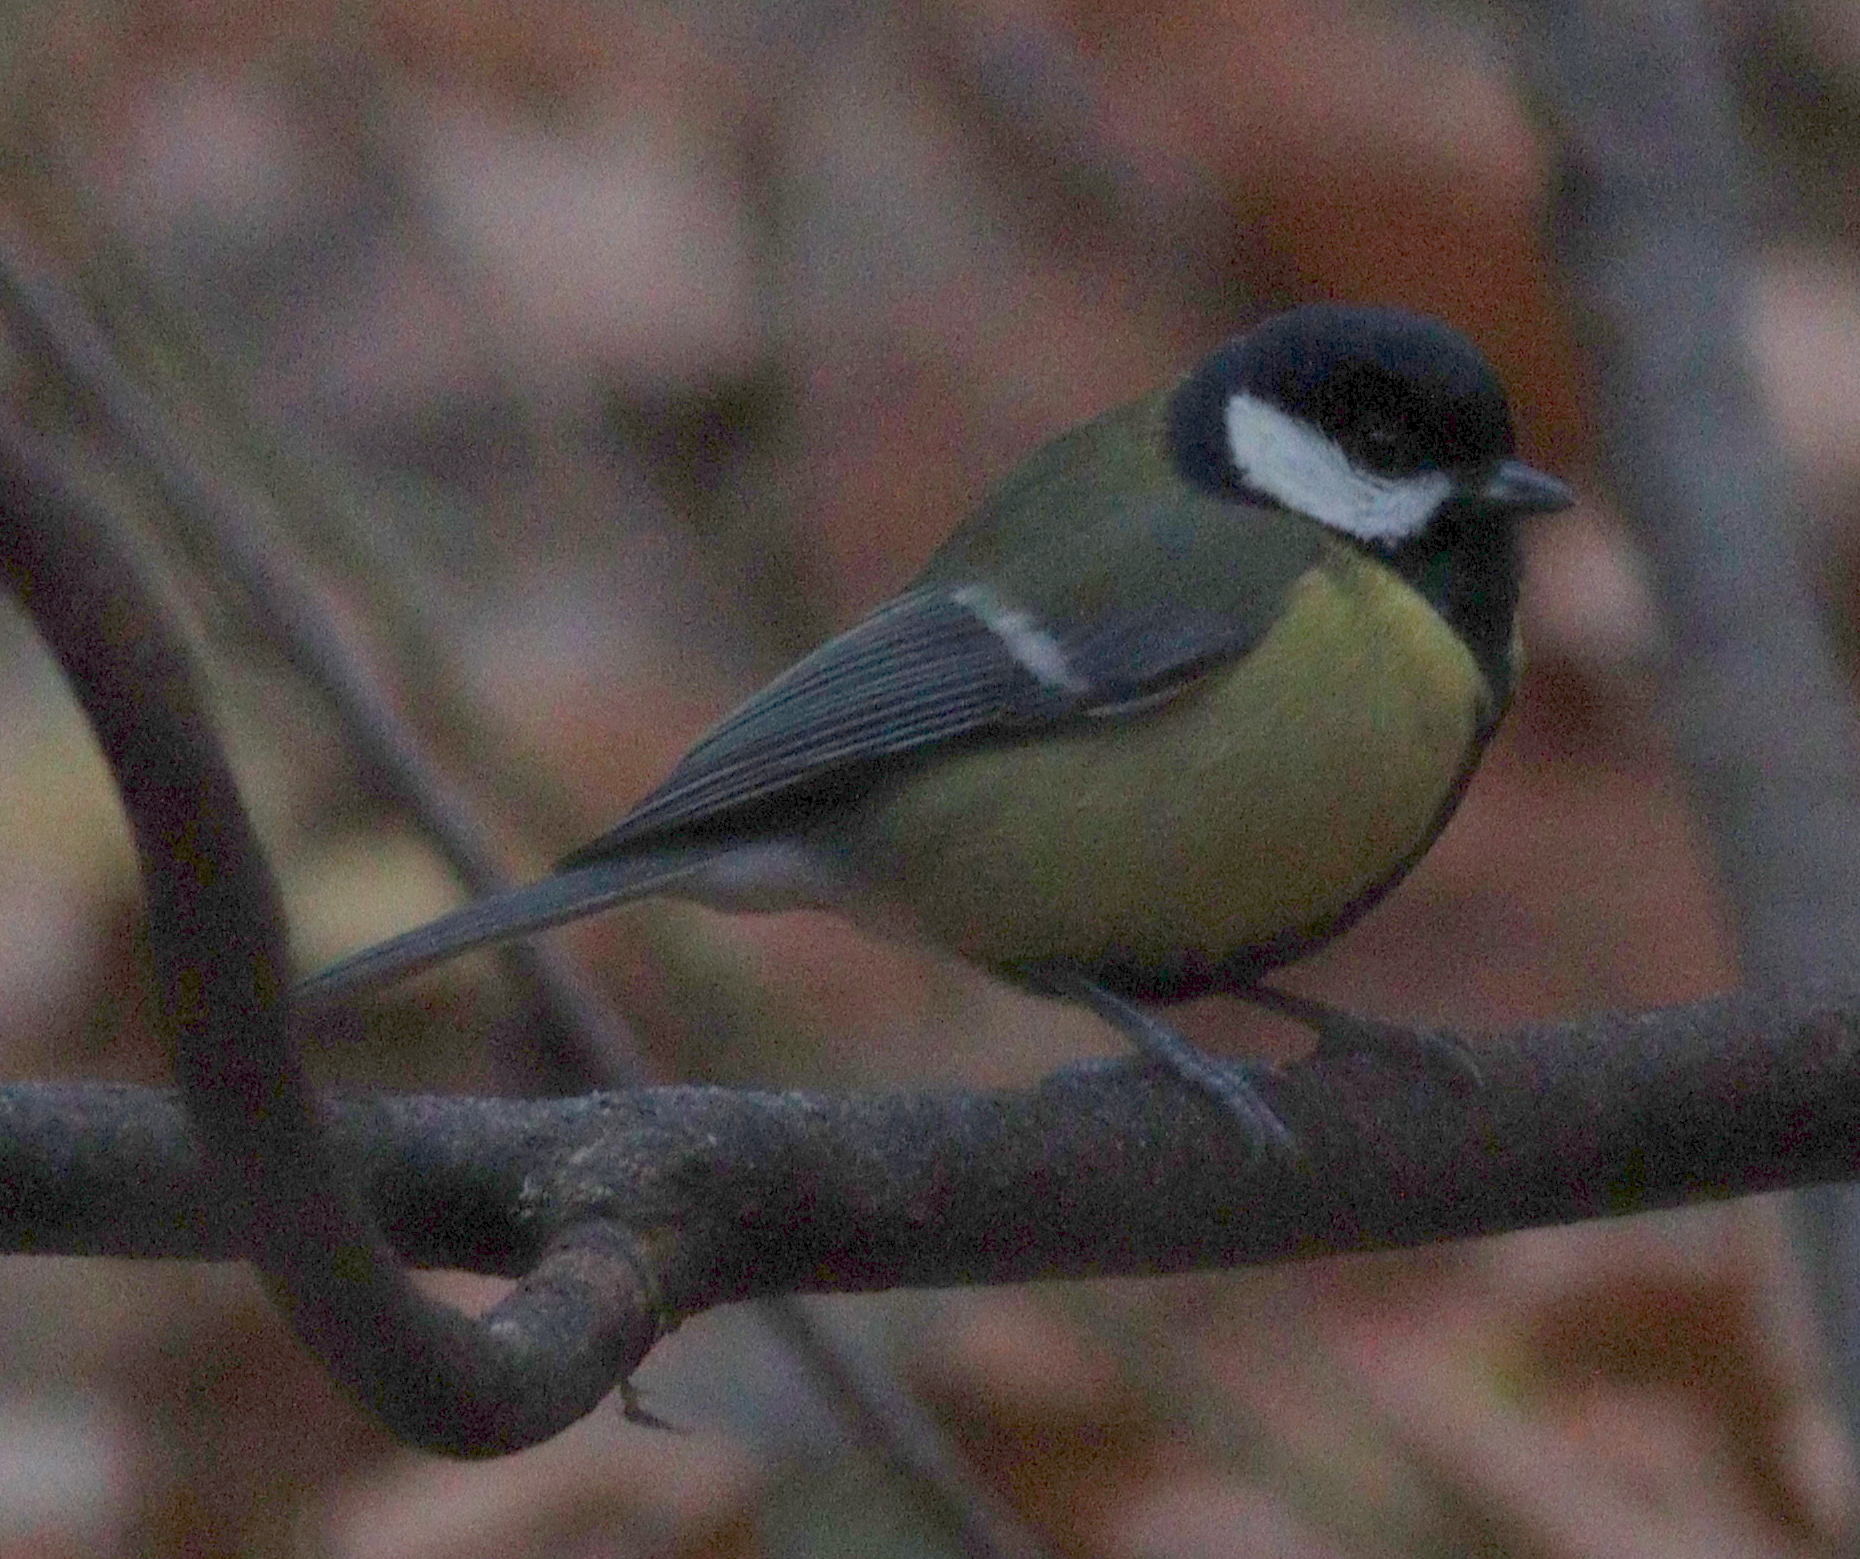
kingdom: Animalia
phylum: Chordata
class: Aves
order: Passeriformes
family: Paridae
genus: Parus
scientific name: Parus major
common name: Great tit
